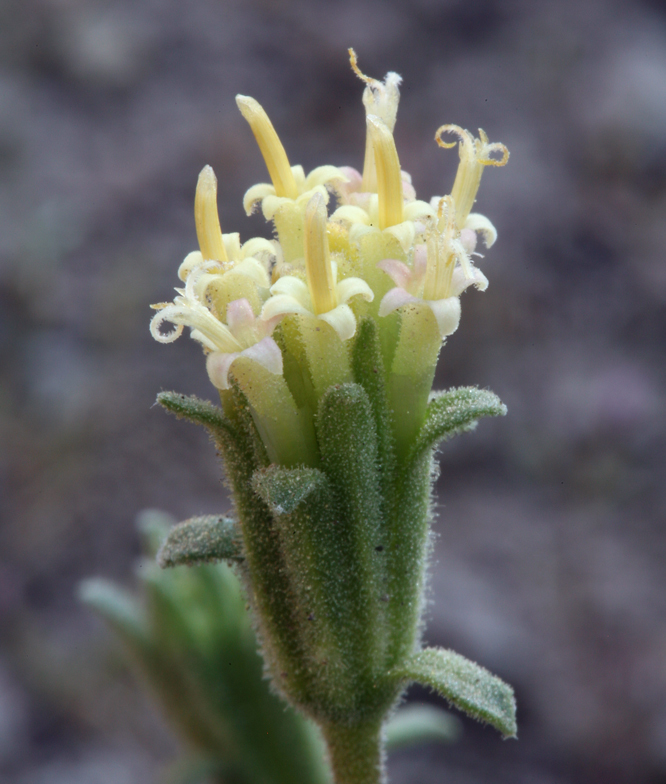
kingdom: Plantae
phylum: Tracheophyta
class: Magnoliopsida
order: Asterales
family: Asteraceae
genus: Chaenactis
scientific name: Chaenactis douglasii
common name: Hoary pincushion
